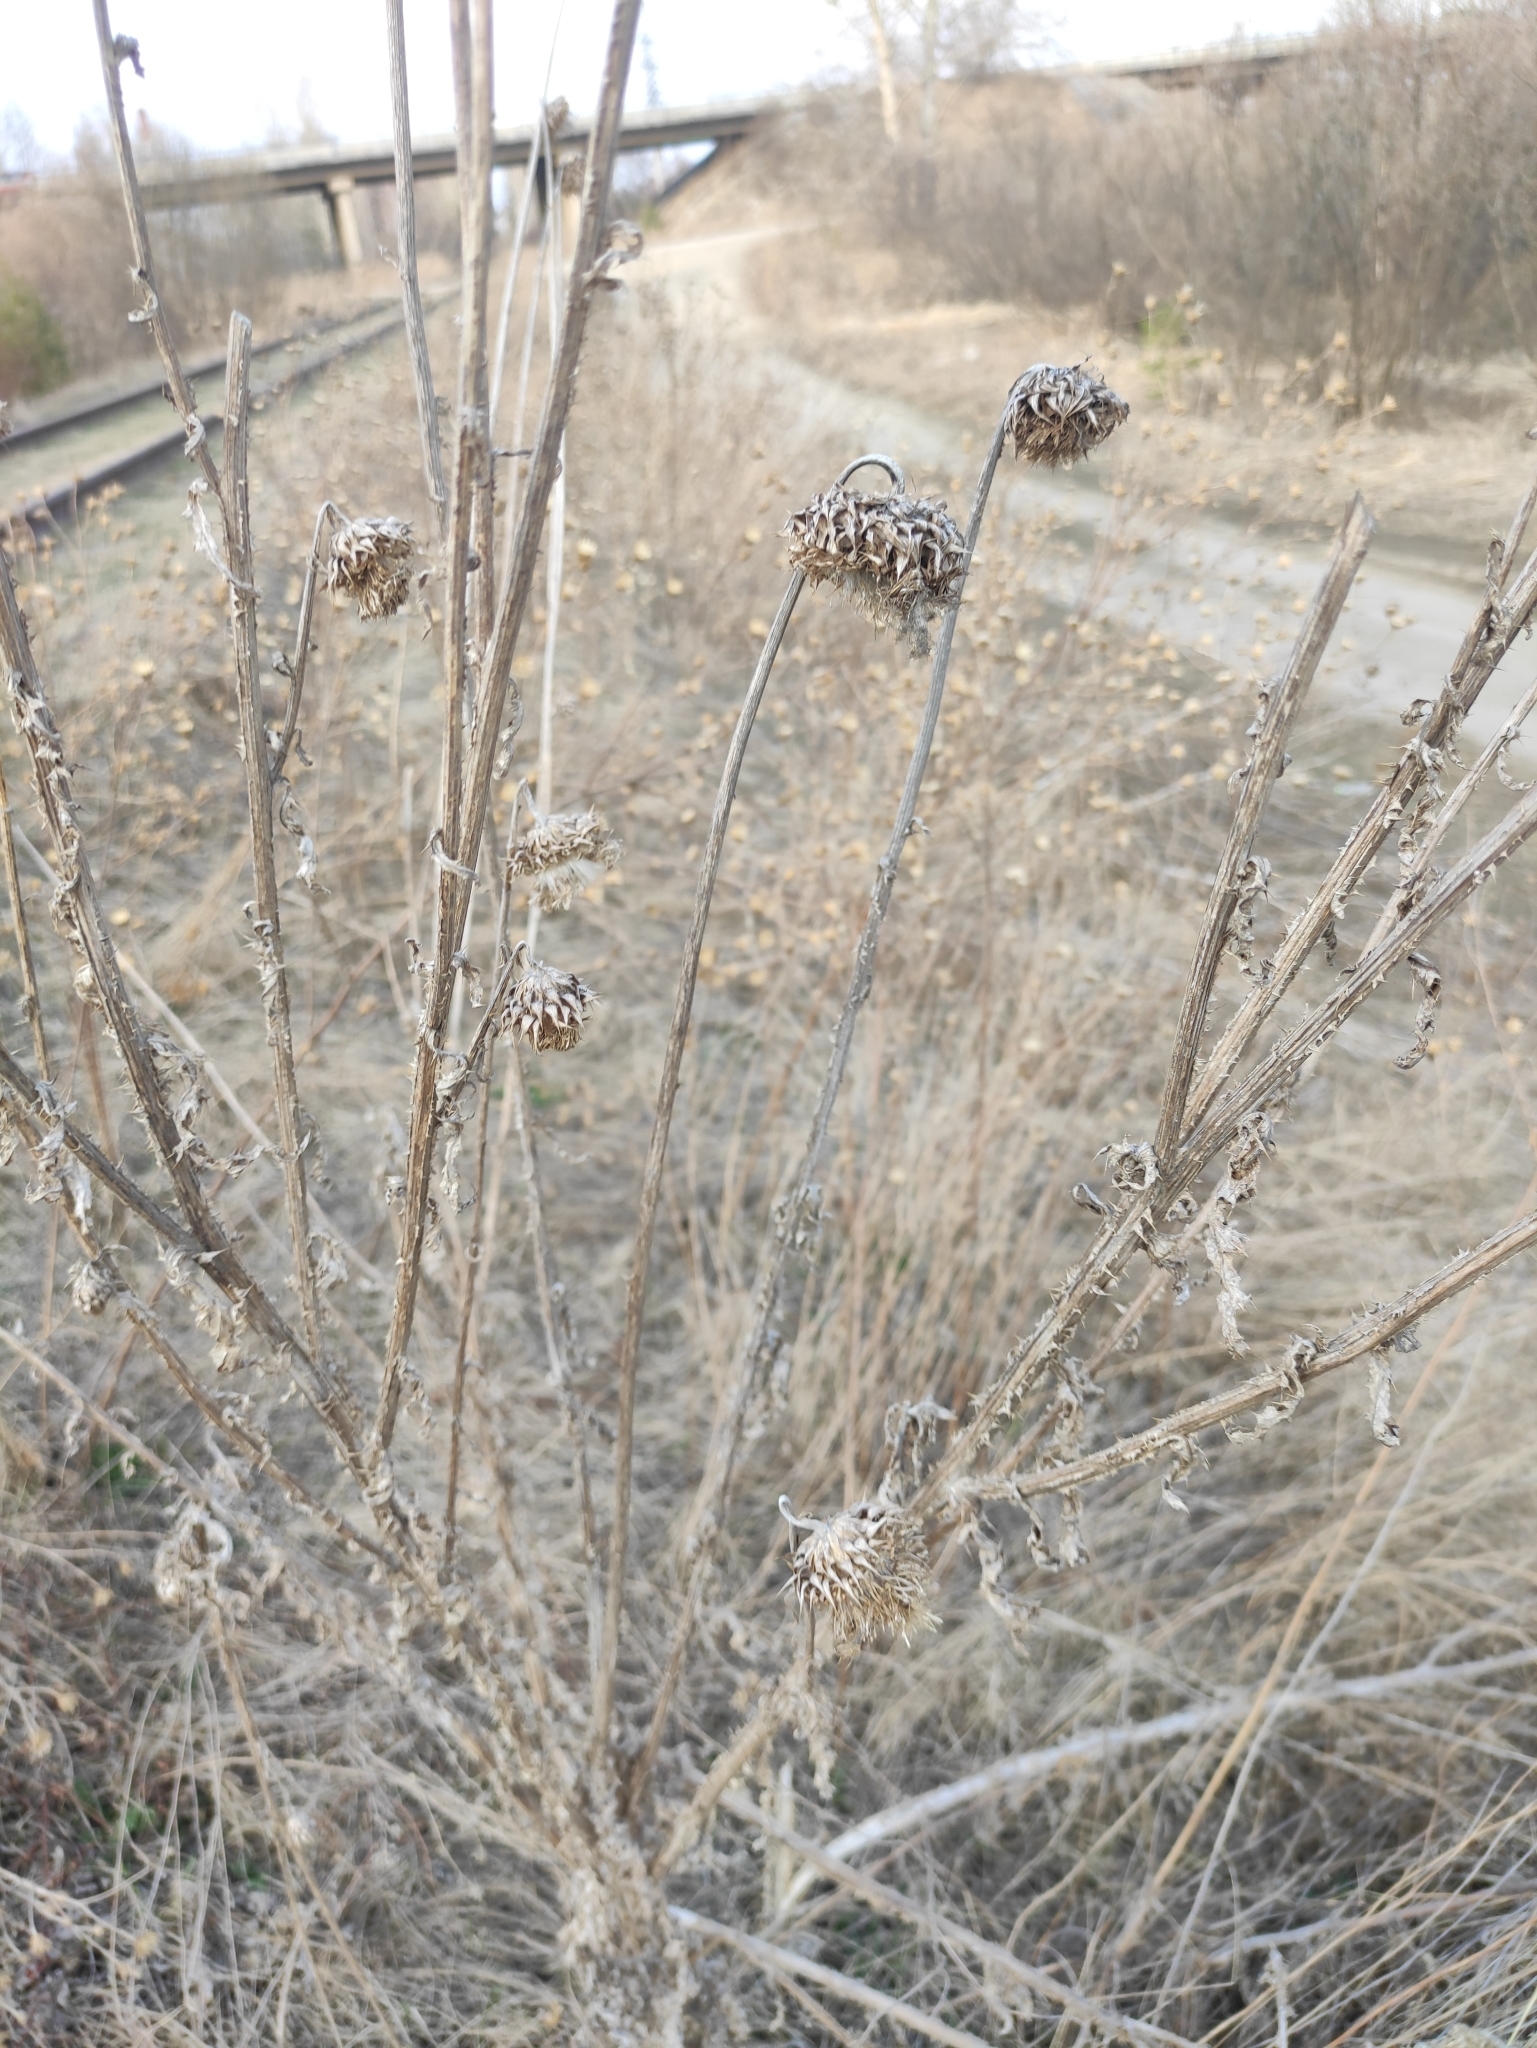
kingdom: Plantae
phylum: Tracheophyta
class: Magnoliopsida
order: Asterales
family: Asteraceae
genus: Carduus
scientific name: Carduus nutans
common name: Musk thistle
